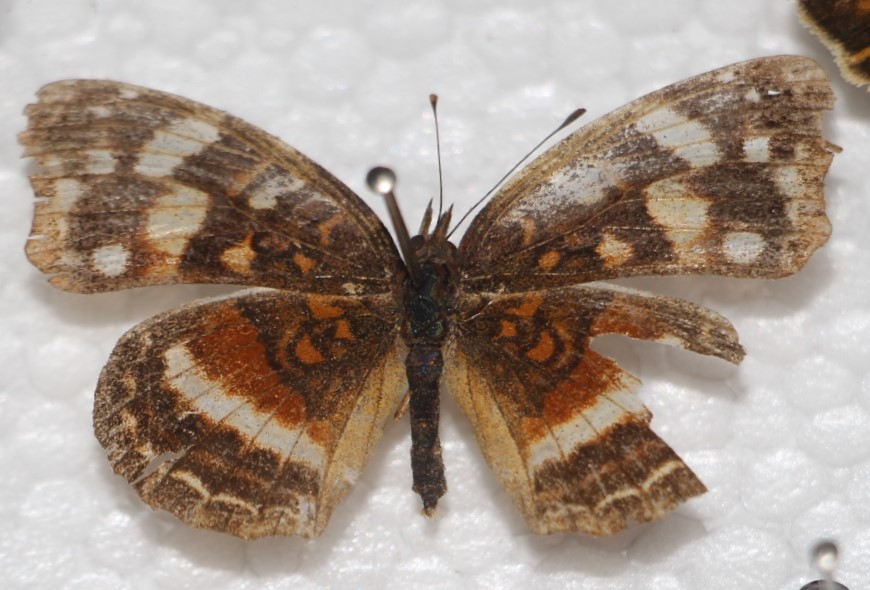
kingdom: Animalia
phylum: Arthropoda
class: Insecta
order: Lepidoptera
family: Nymphalidae
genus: Anthanassa
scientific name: Anthanassa drusilla
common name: Orange-patched crescent
